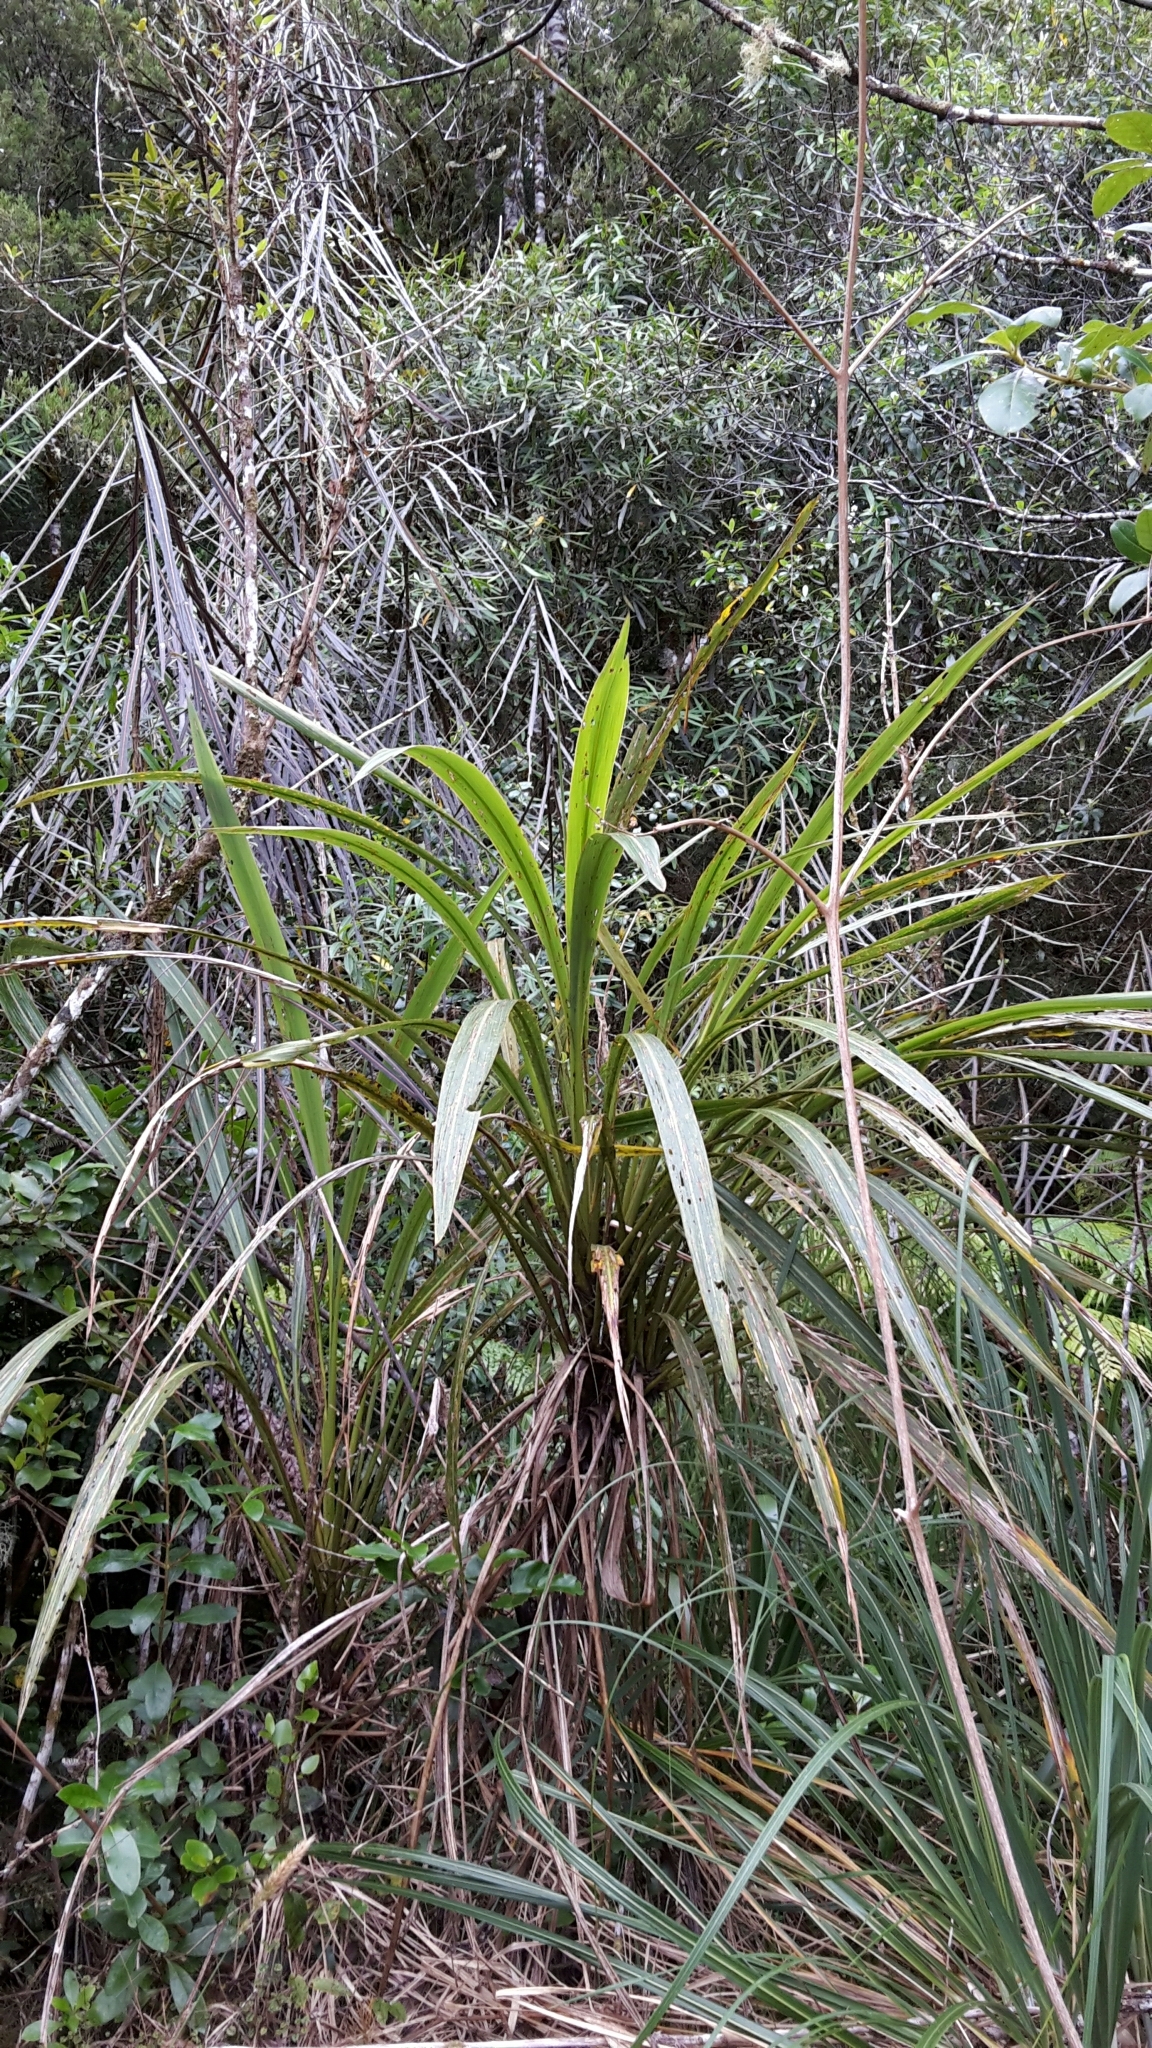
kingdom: Plantae
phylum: Tracheophyta
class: Liliopsida
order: Asparagales
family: Asparagaceae
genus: Cordyline
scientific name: Cordyline banksii
